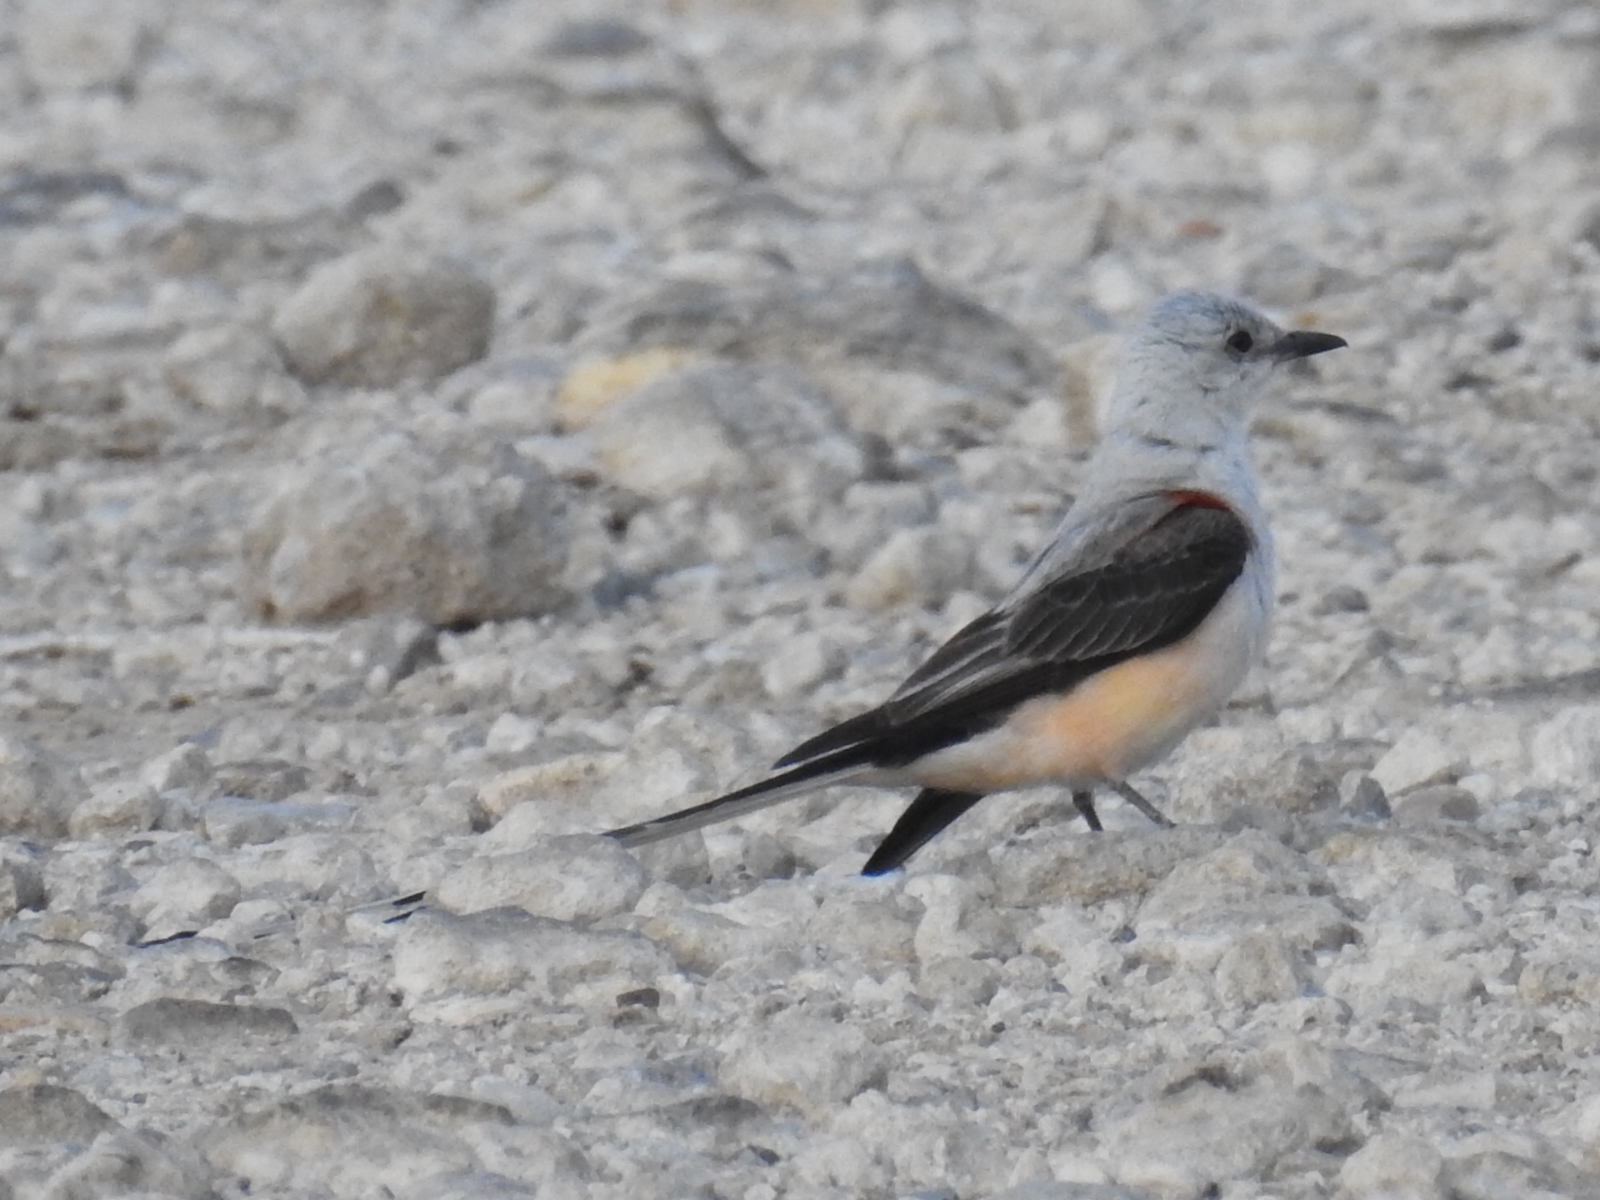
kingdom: Animalia
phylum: Chordata
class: Aves
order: Passeriformes
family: Tyrannidae
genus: Tyrannus
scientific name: Tyrannus forficatus
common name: Scissor-tailed flycatcher
